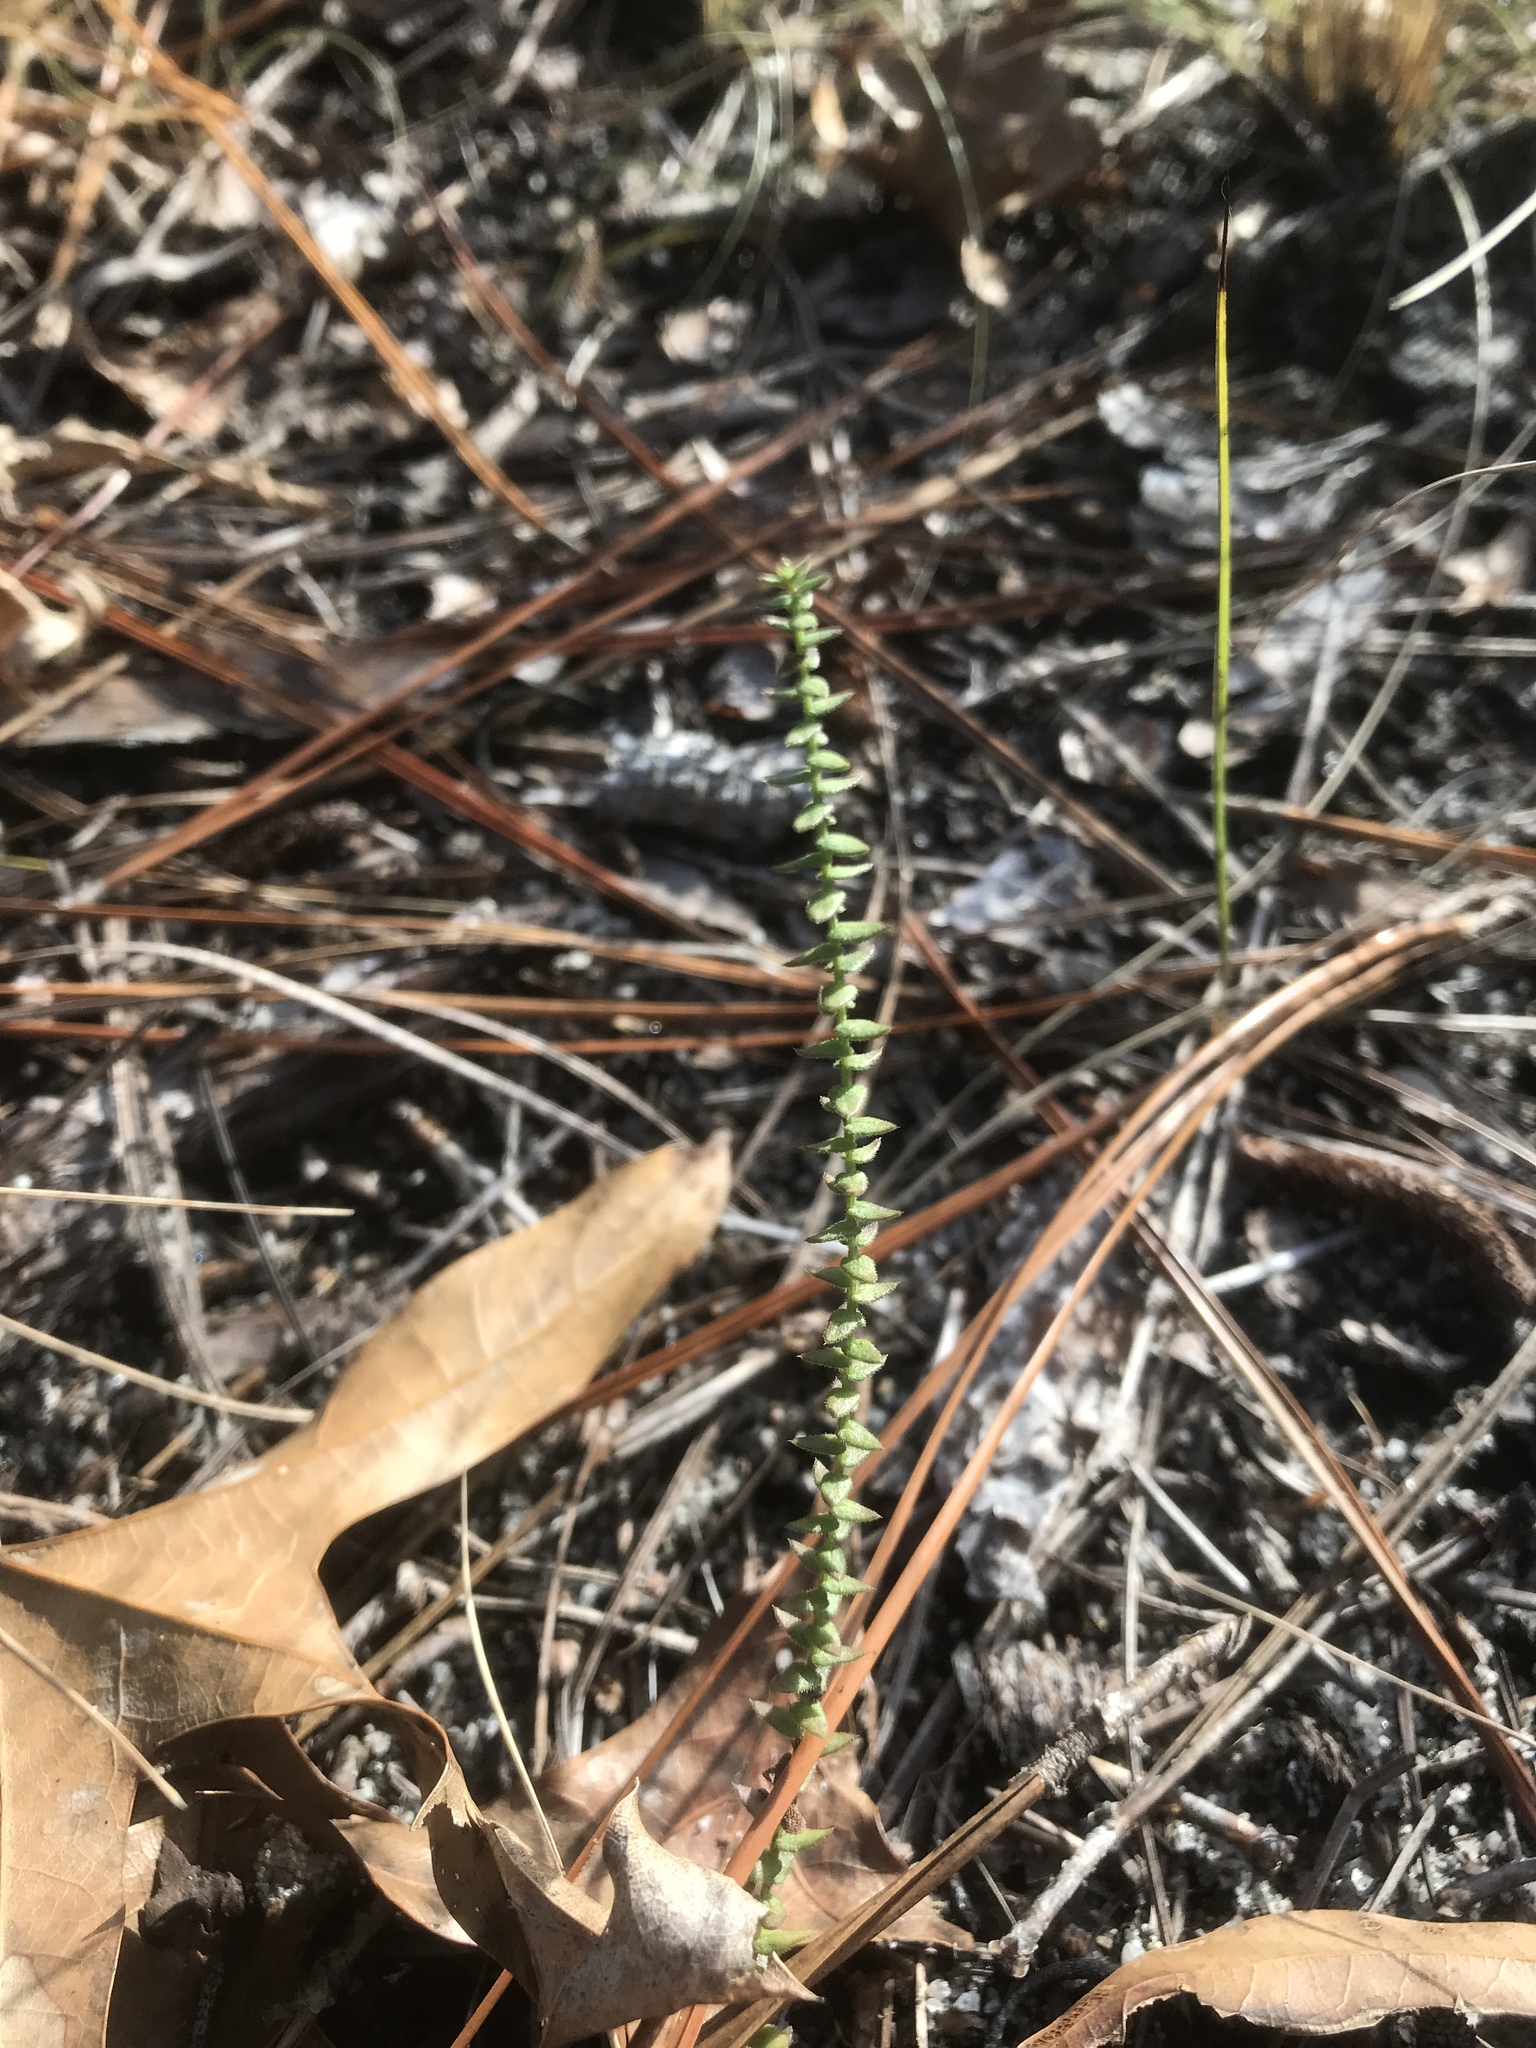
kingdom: Plantae
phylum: Tracheophyta
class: Magnoliopsida
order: Asterales
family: Asteraceae
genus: Symphyotrichum
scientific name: Symphyotrichum walteri
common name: Walter's aster
